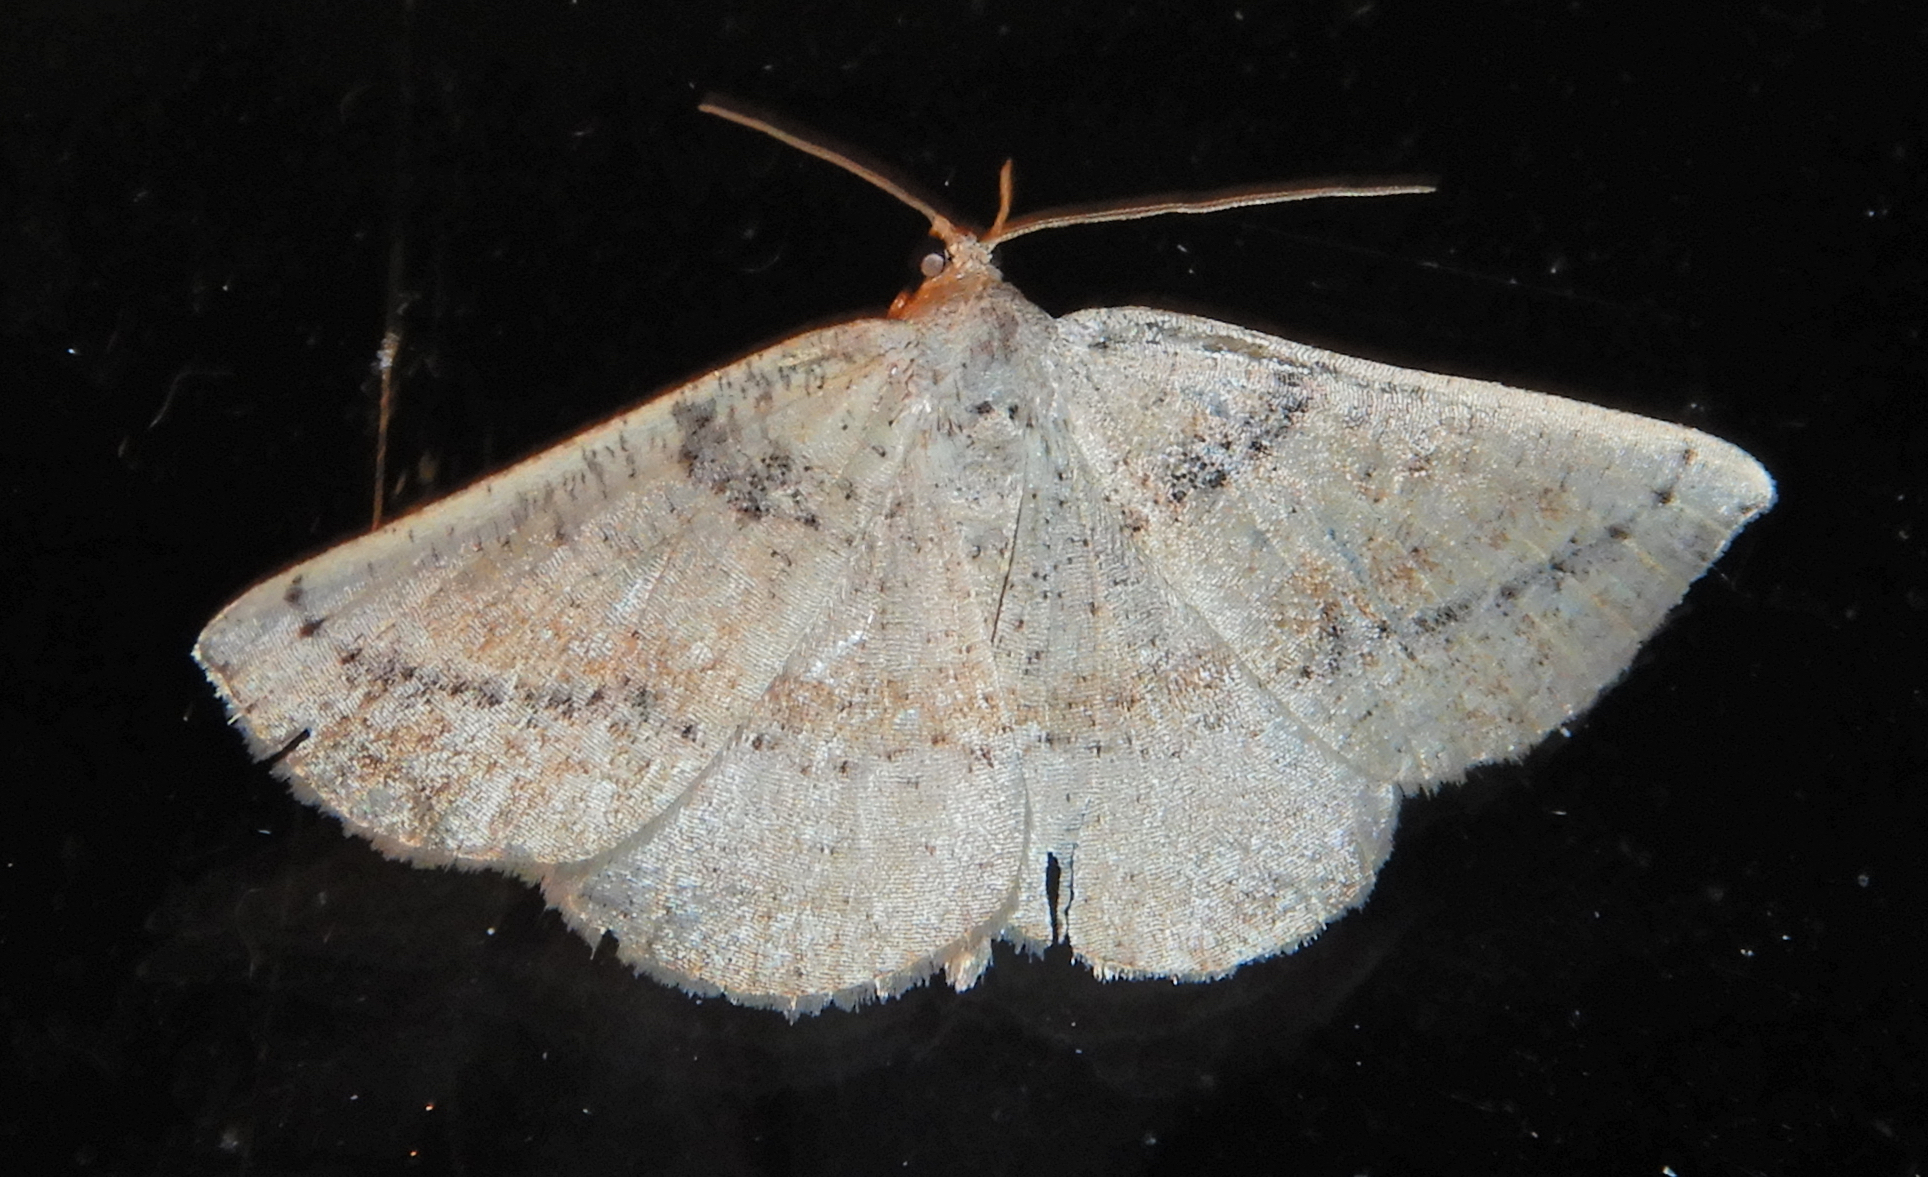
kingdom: Animalia
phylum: Arthropoda
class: Insecta
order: Lepidoptera
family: Geometridae
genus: Tacparia
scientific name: Tacparia atropunctata
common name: Northern pale alder
